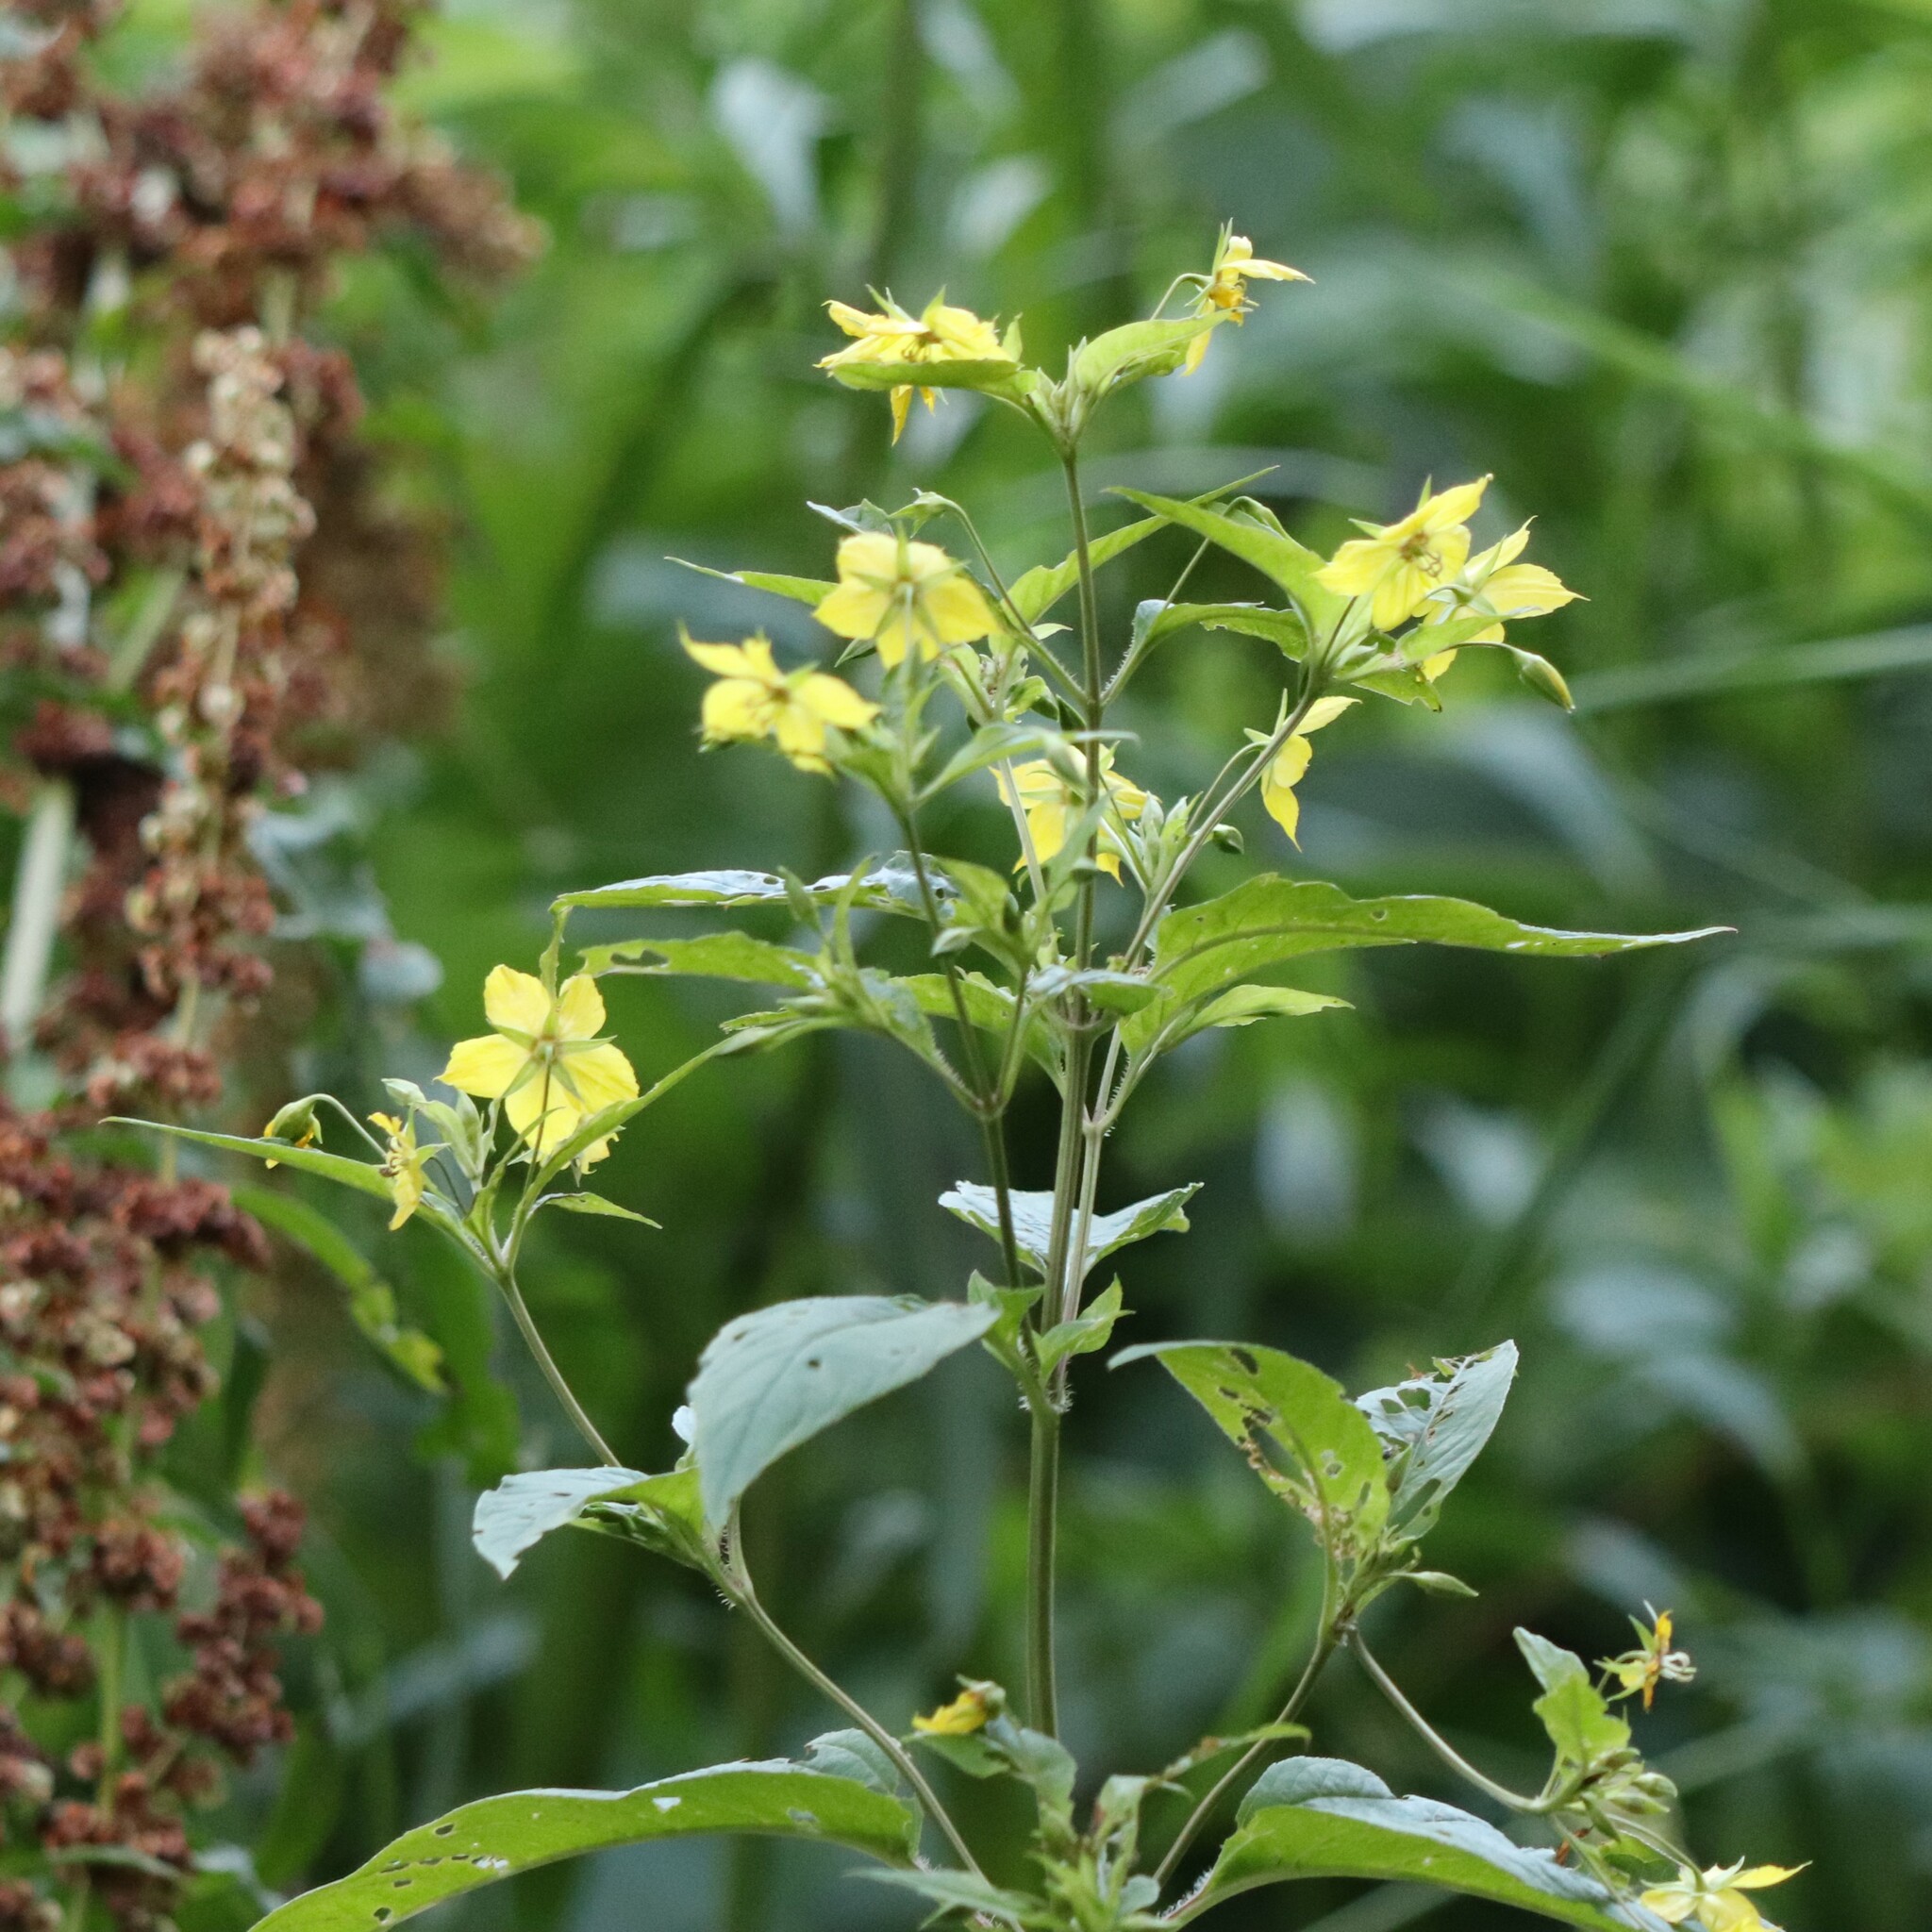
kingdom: Plantae
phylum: Tracheophyta
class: Magnoliopsida
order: Ericales
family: Primulaceae
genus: Lysimachia
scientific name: Lysimachia ciliata
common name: Fringed loosestrife
